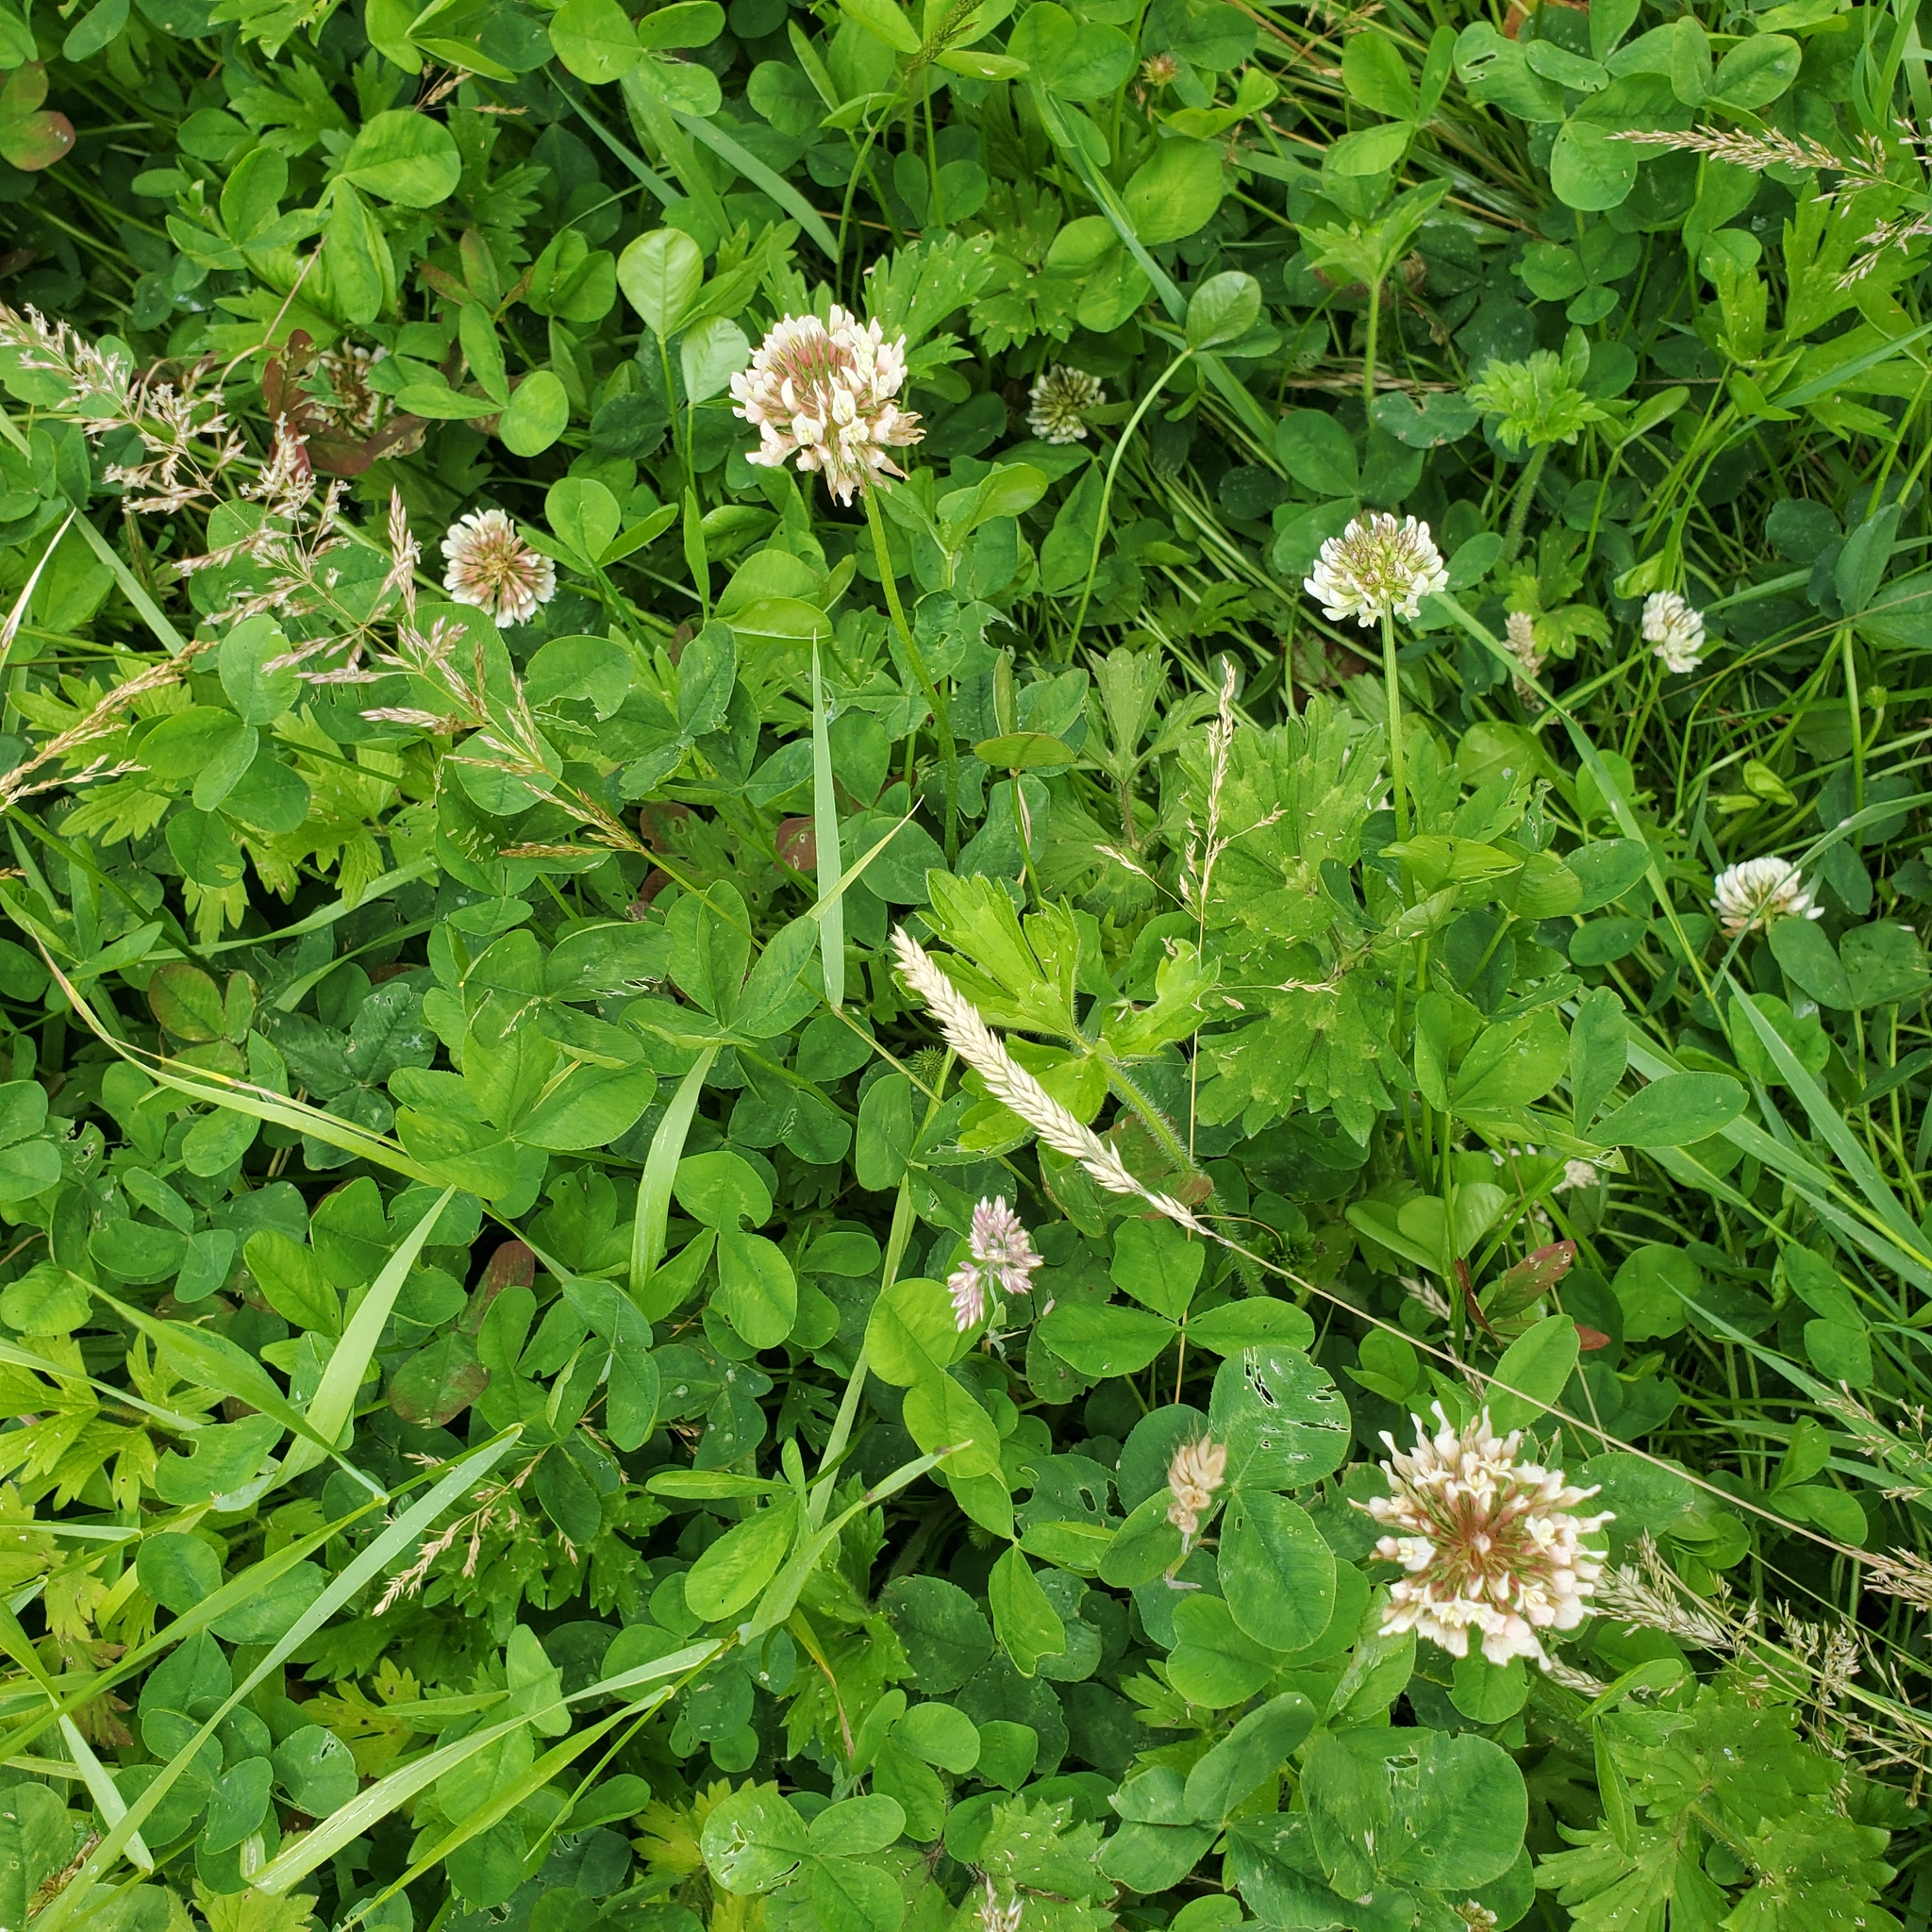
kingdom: Plantae
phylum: Tracheophyta
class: Magnoliopsida
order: Fabales
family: Fabaceae
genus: Trifolium
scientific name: Trifolium repens
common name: White clover
